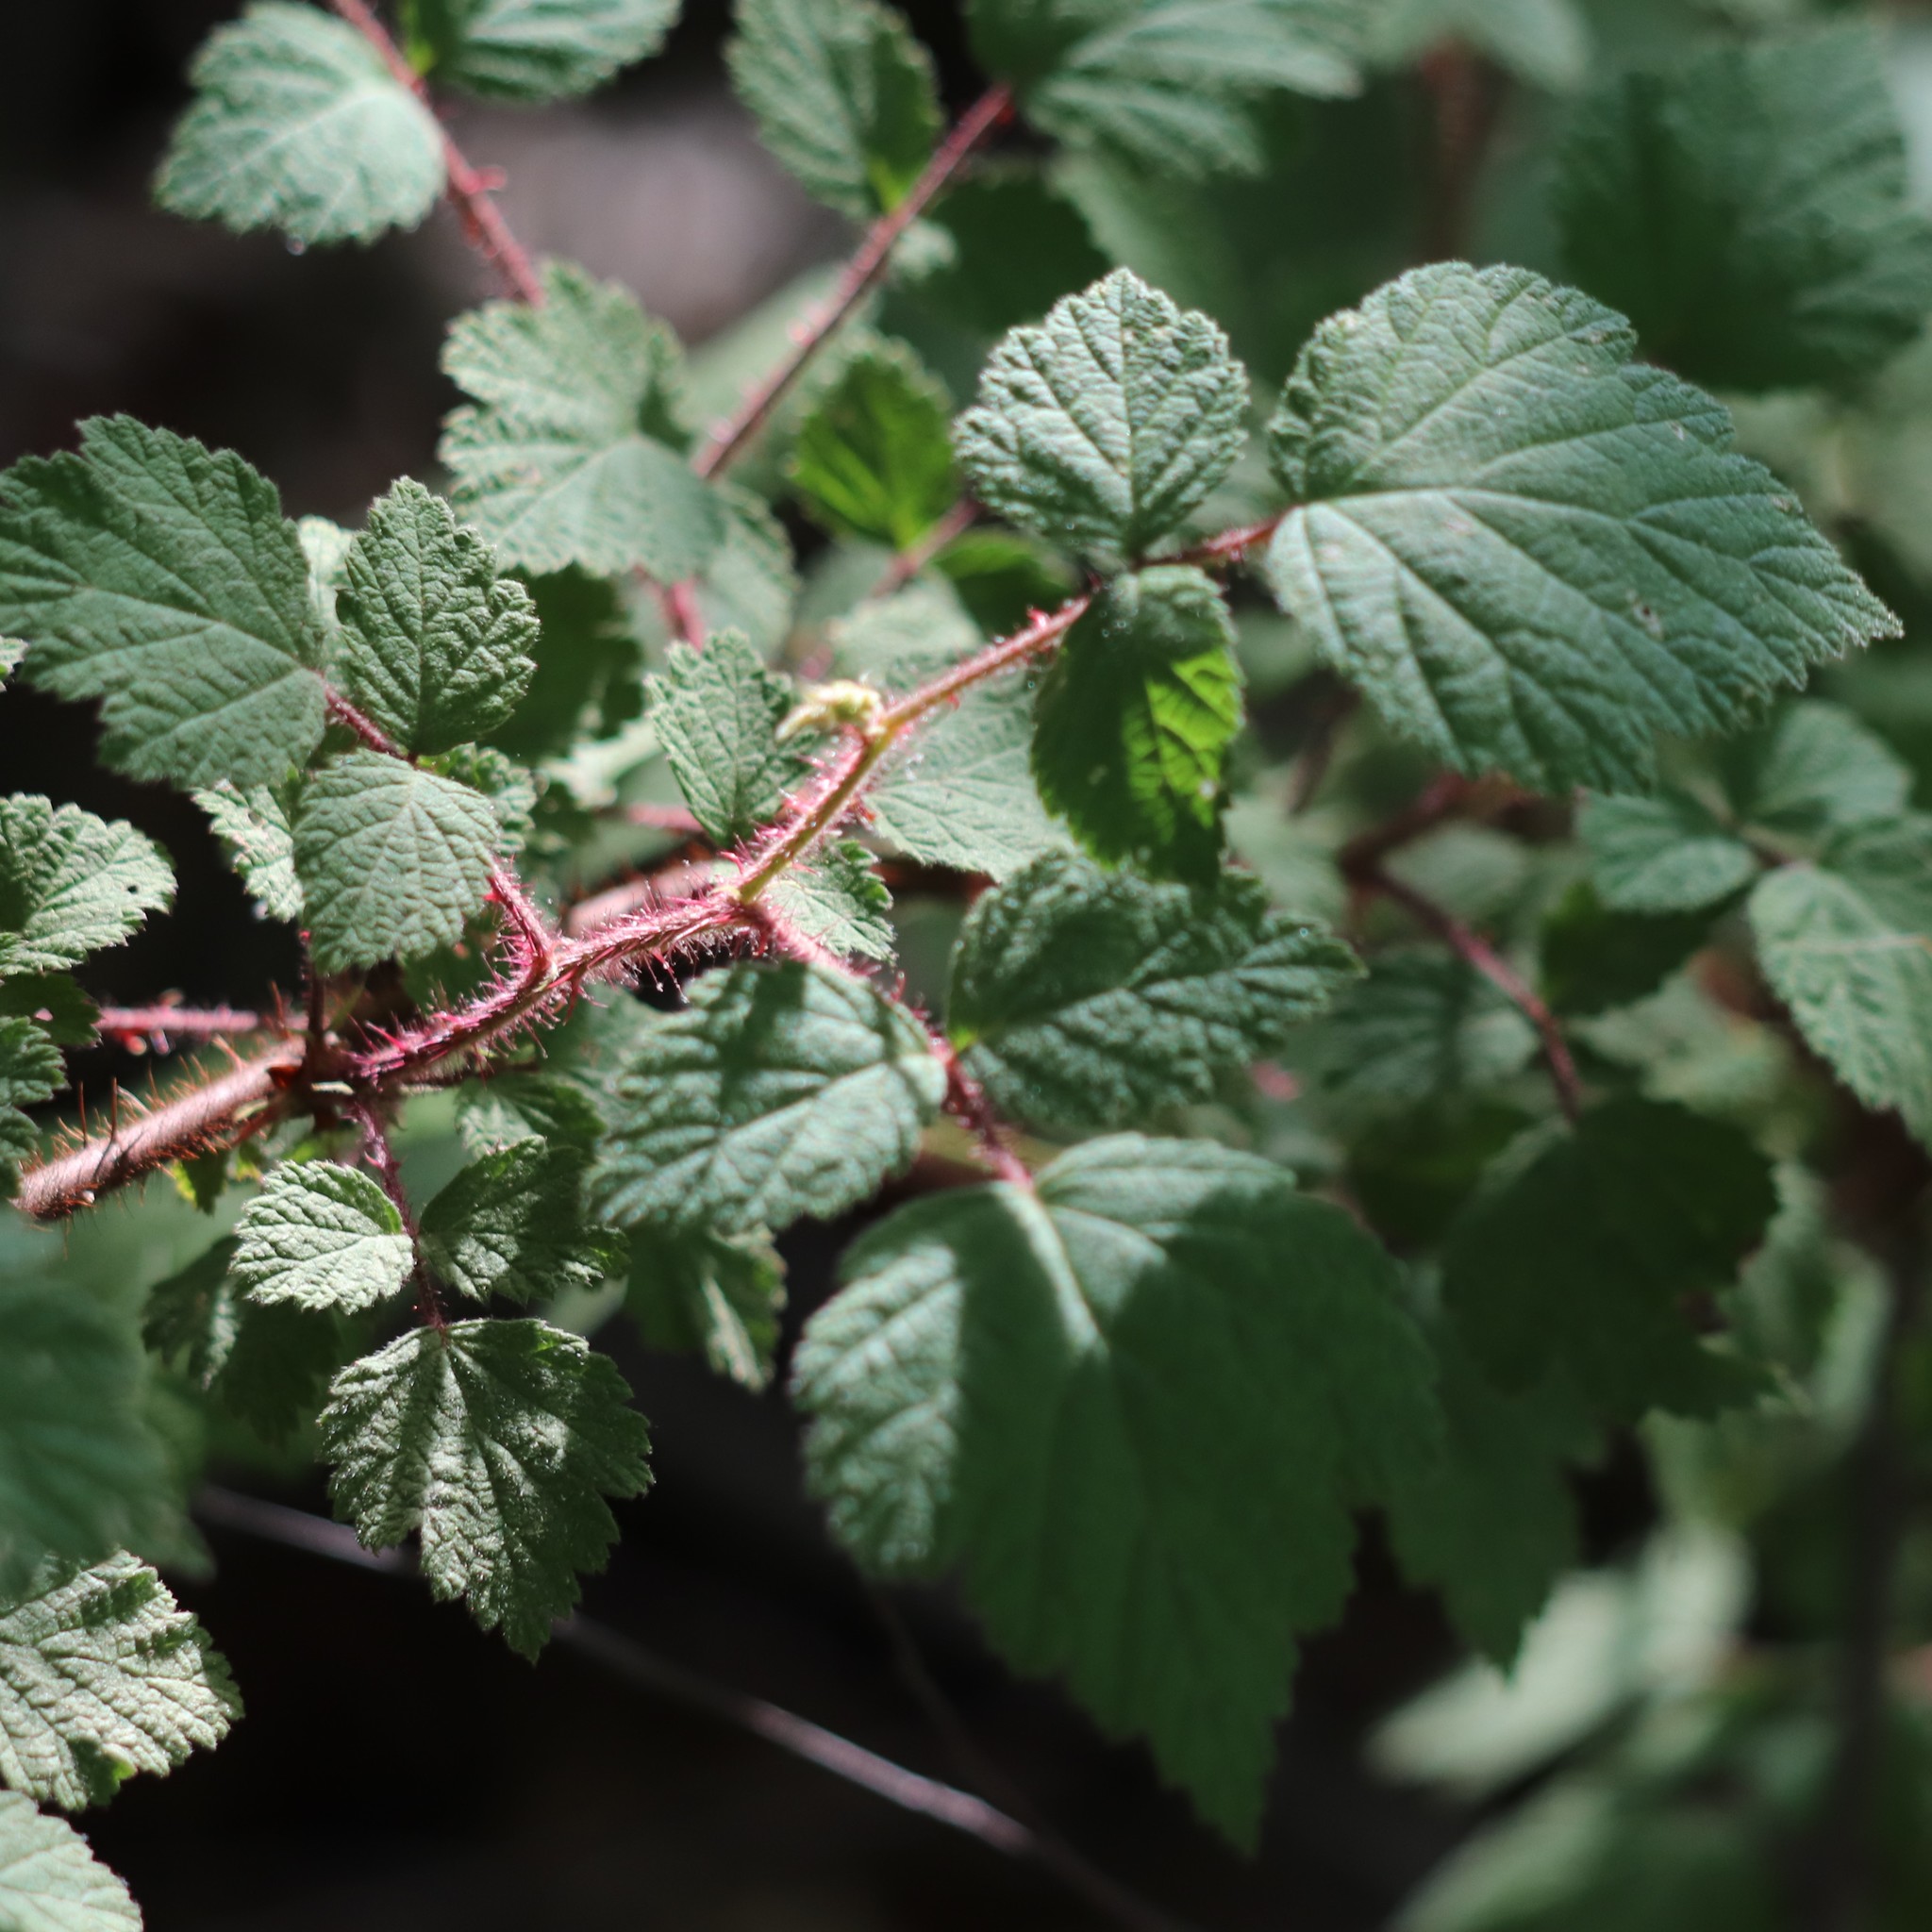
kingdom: Plantae
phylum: Tracheophyta
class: Magnoliopsida
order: Rosales
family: Rosaceae
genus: Rubus
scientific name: Rubus phoenicolasius
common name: Japanese wineberry
